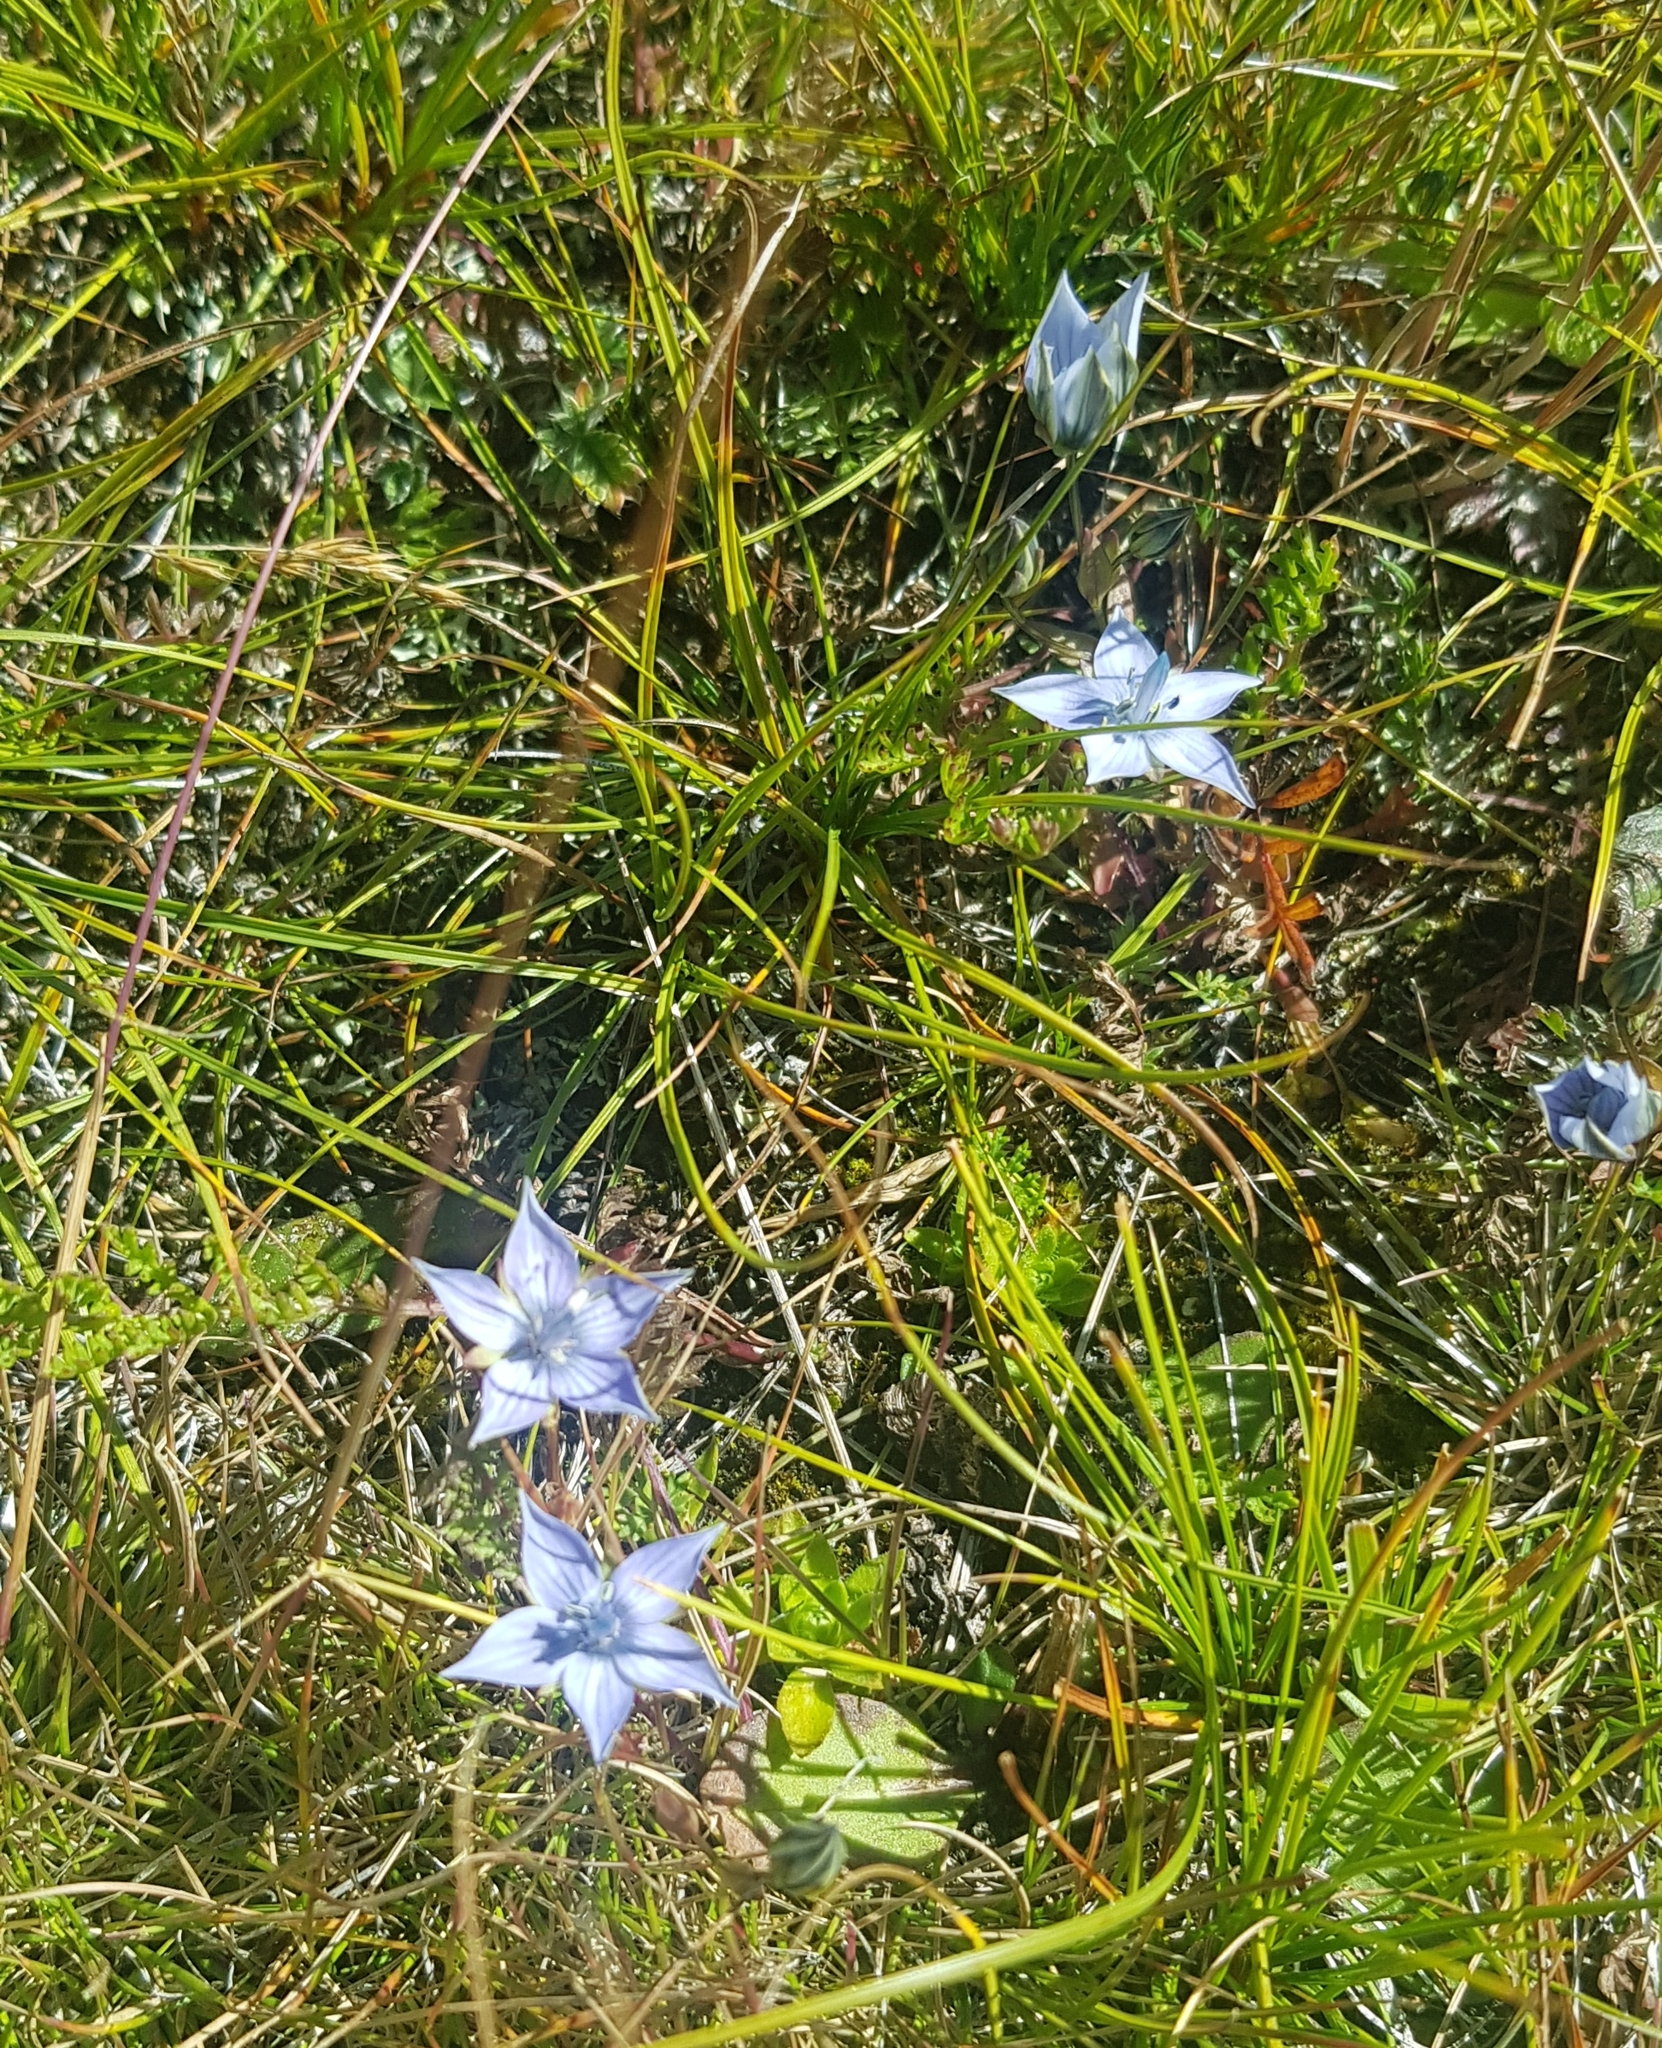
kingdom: Plantae
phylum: Tracheophyta
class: Magnoliopsida
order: Gentianales
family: Gentianaceae
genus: Lomatogonium
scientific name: Lomatogonium rotatum
